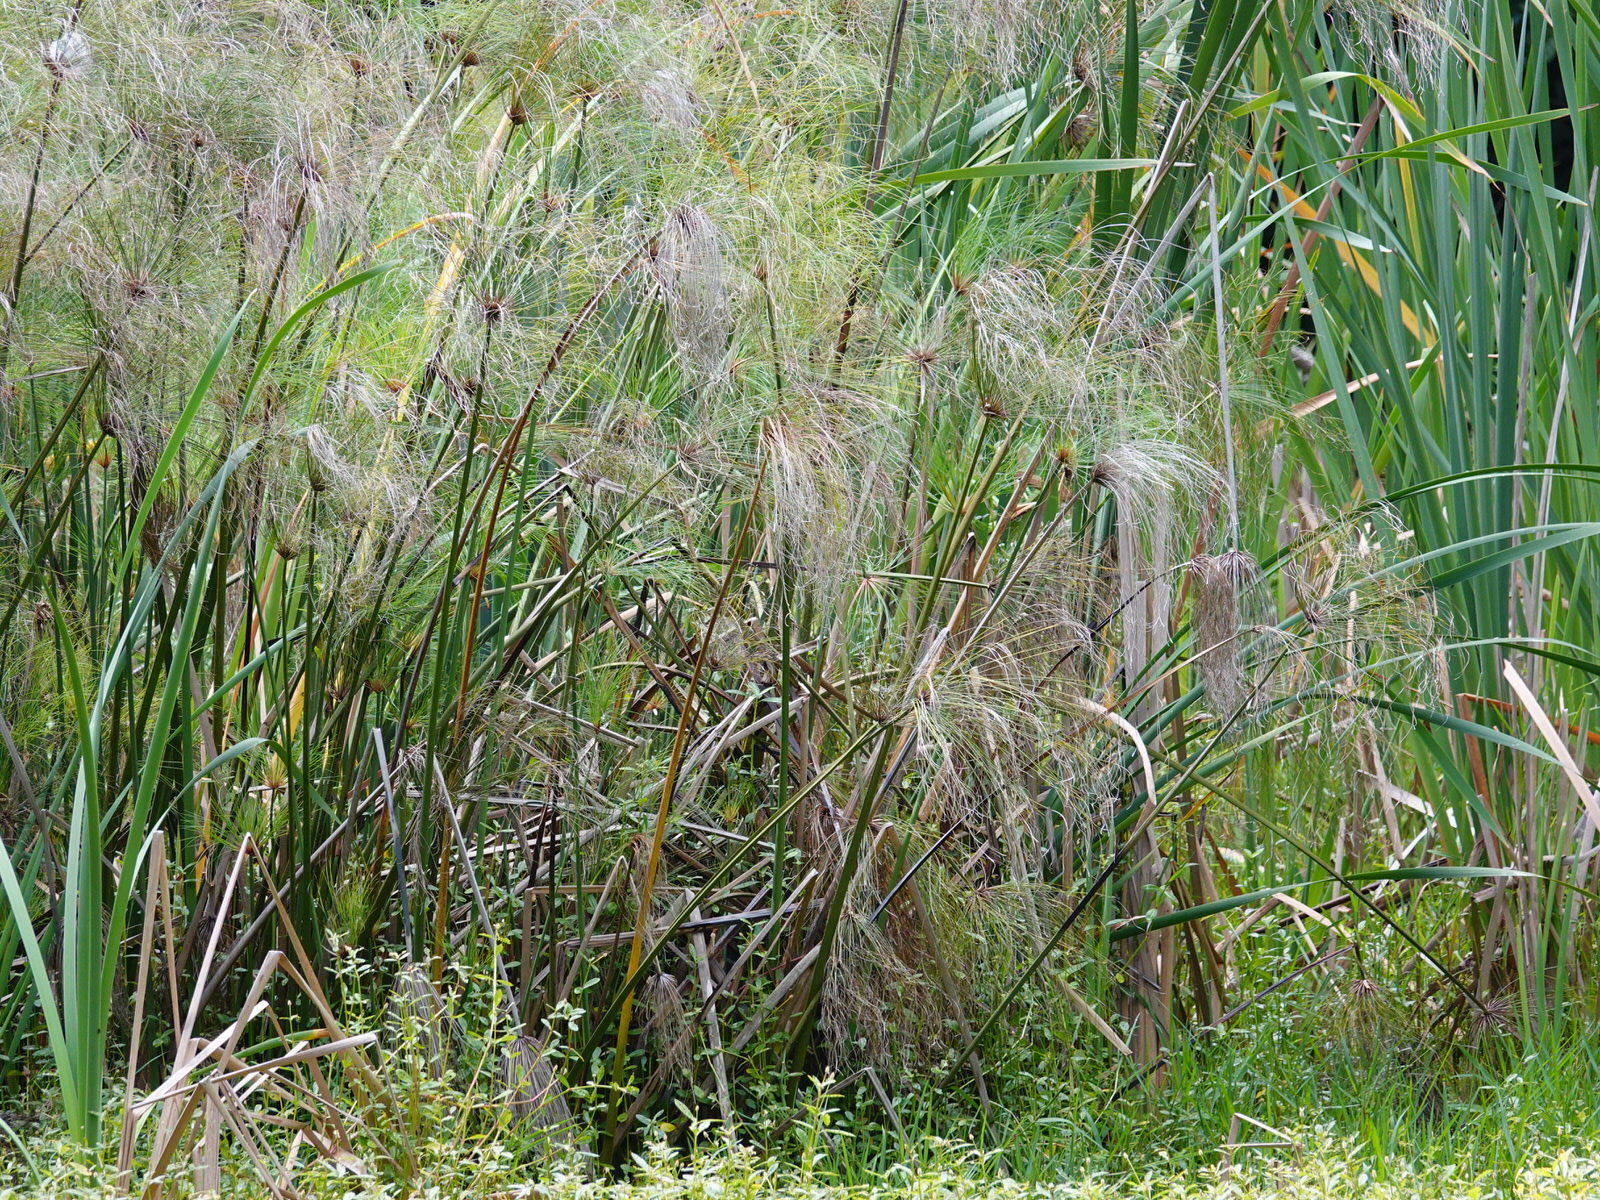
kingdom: Plantae
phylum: Tracheophyta
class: Liliopsida
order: Poales
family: Cyperaceae
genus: Cyperus
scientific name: Cyperus papyrus
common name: Papyrus
